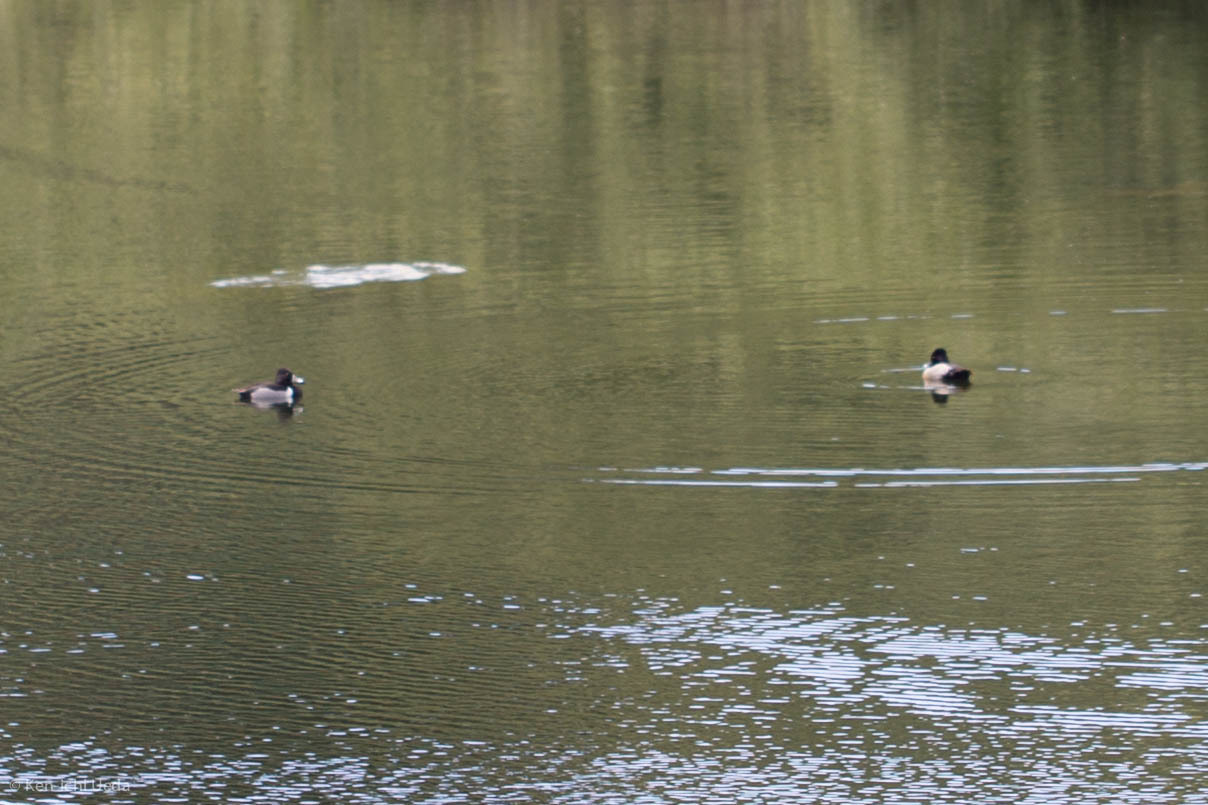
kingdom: Animalia
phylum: Chordata
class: Aves
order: Anseriformes
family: Anatidae
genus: Aythya
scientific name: Aythya collaris
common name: Ring-necked duck
